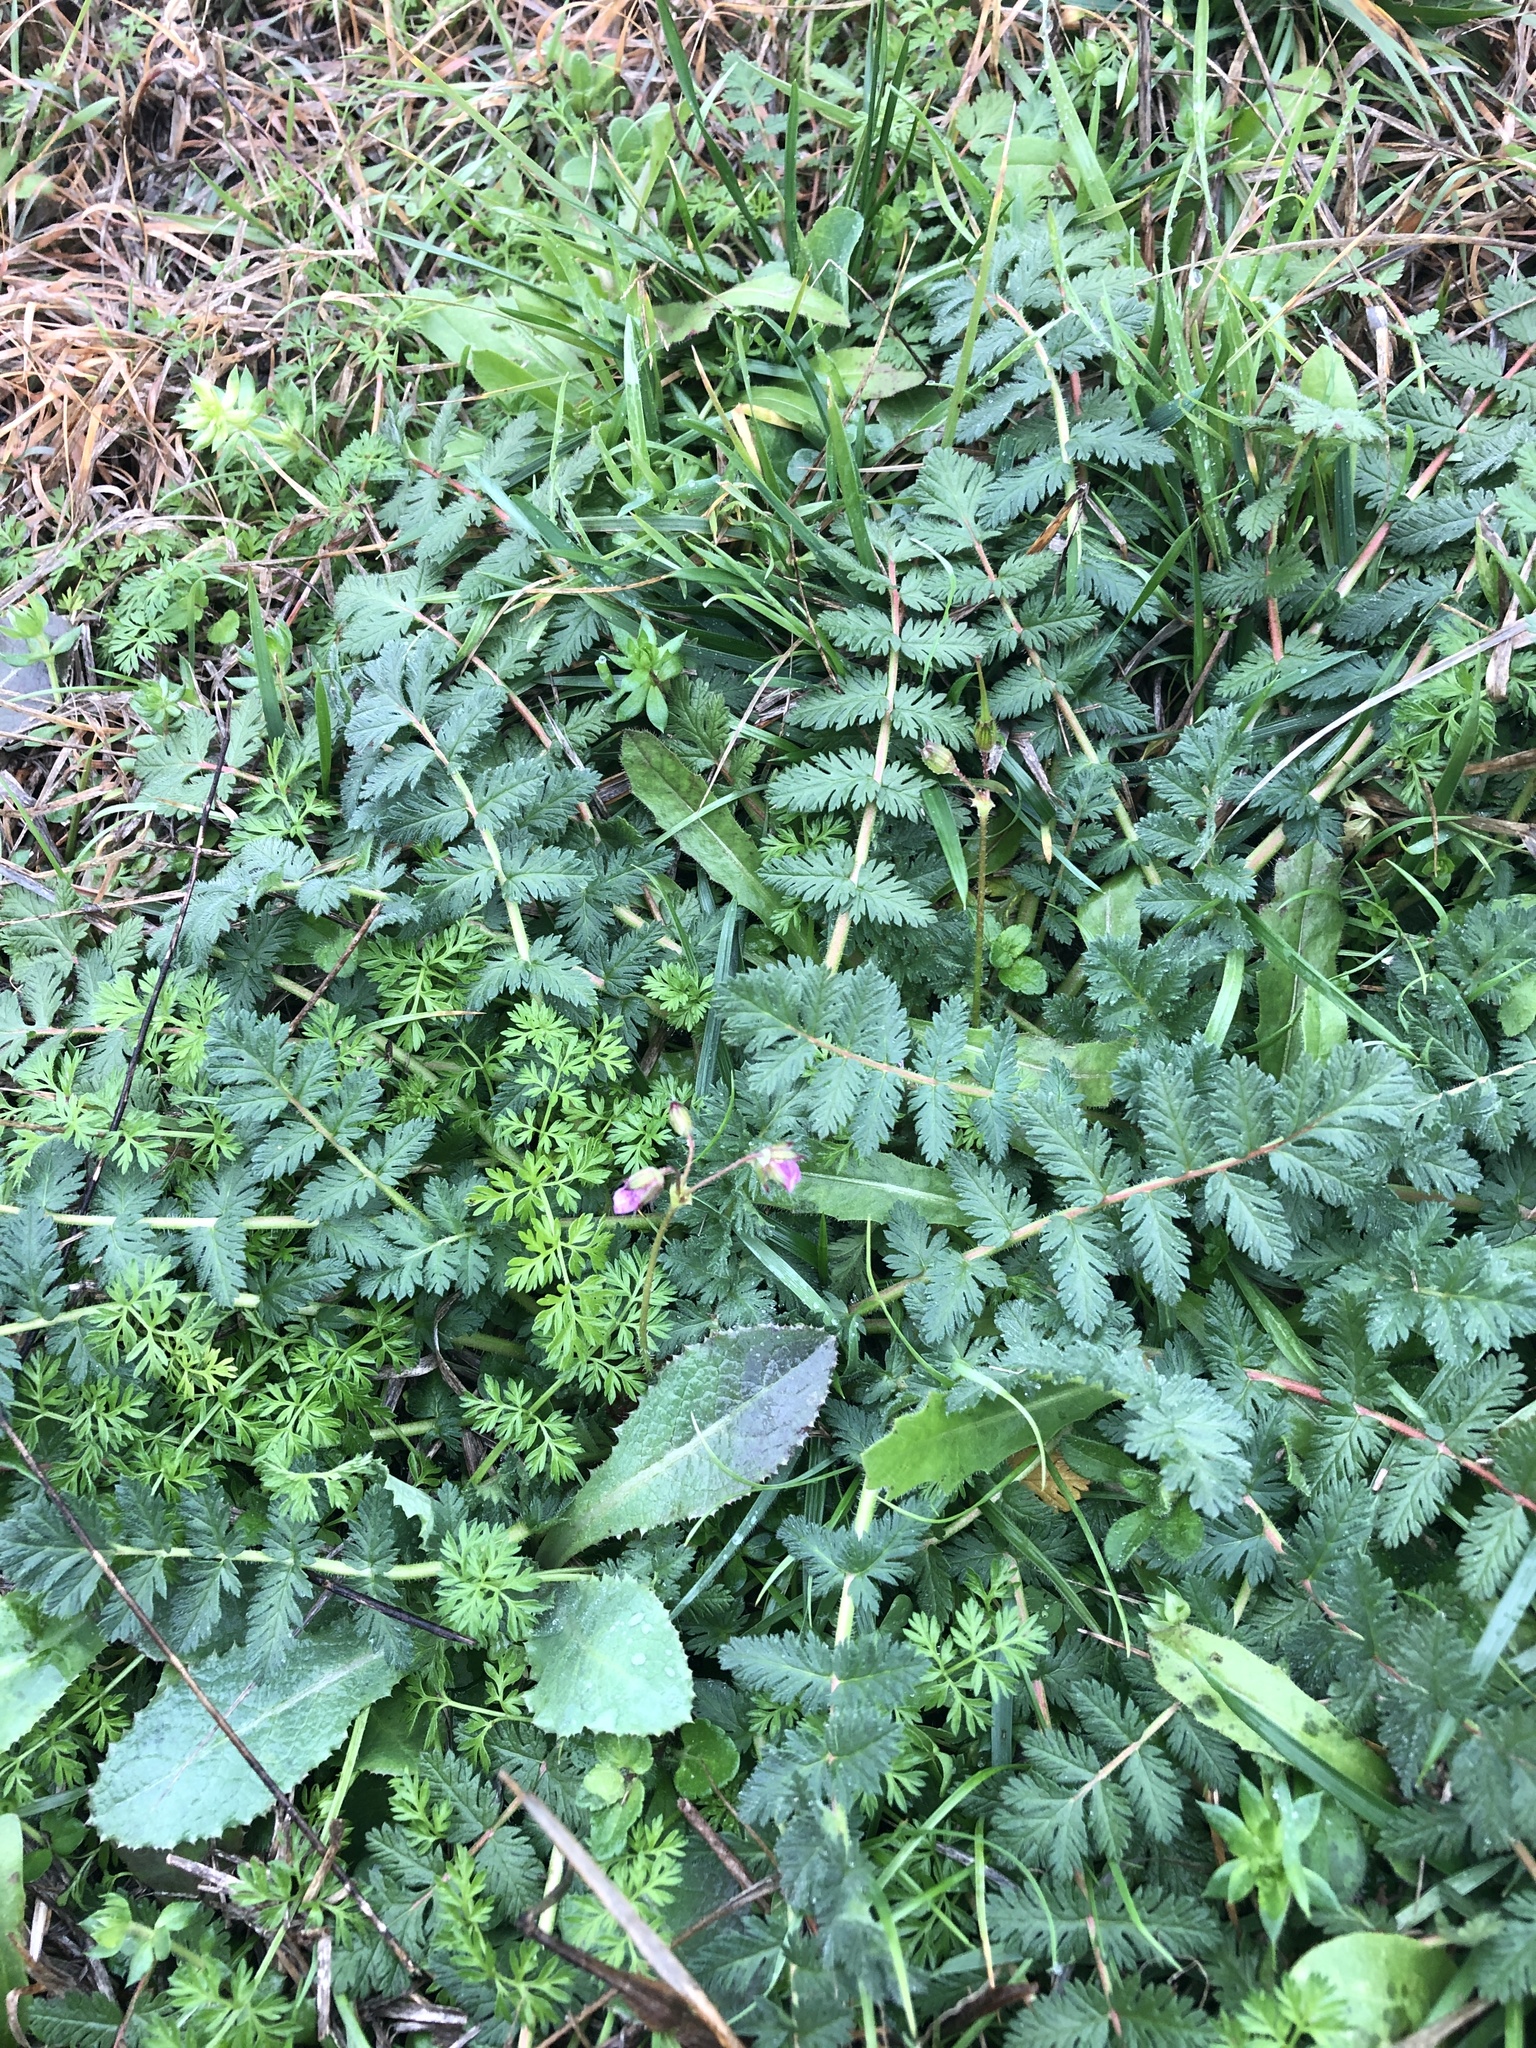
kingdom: Plantae
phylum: Tracheophyta
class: Magnoliopsida
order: Geraniales
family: Geraniaceae
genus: Erodium
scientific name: Erodium cicutarium
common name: Common stork's-bill
